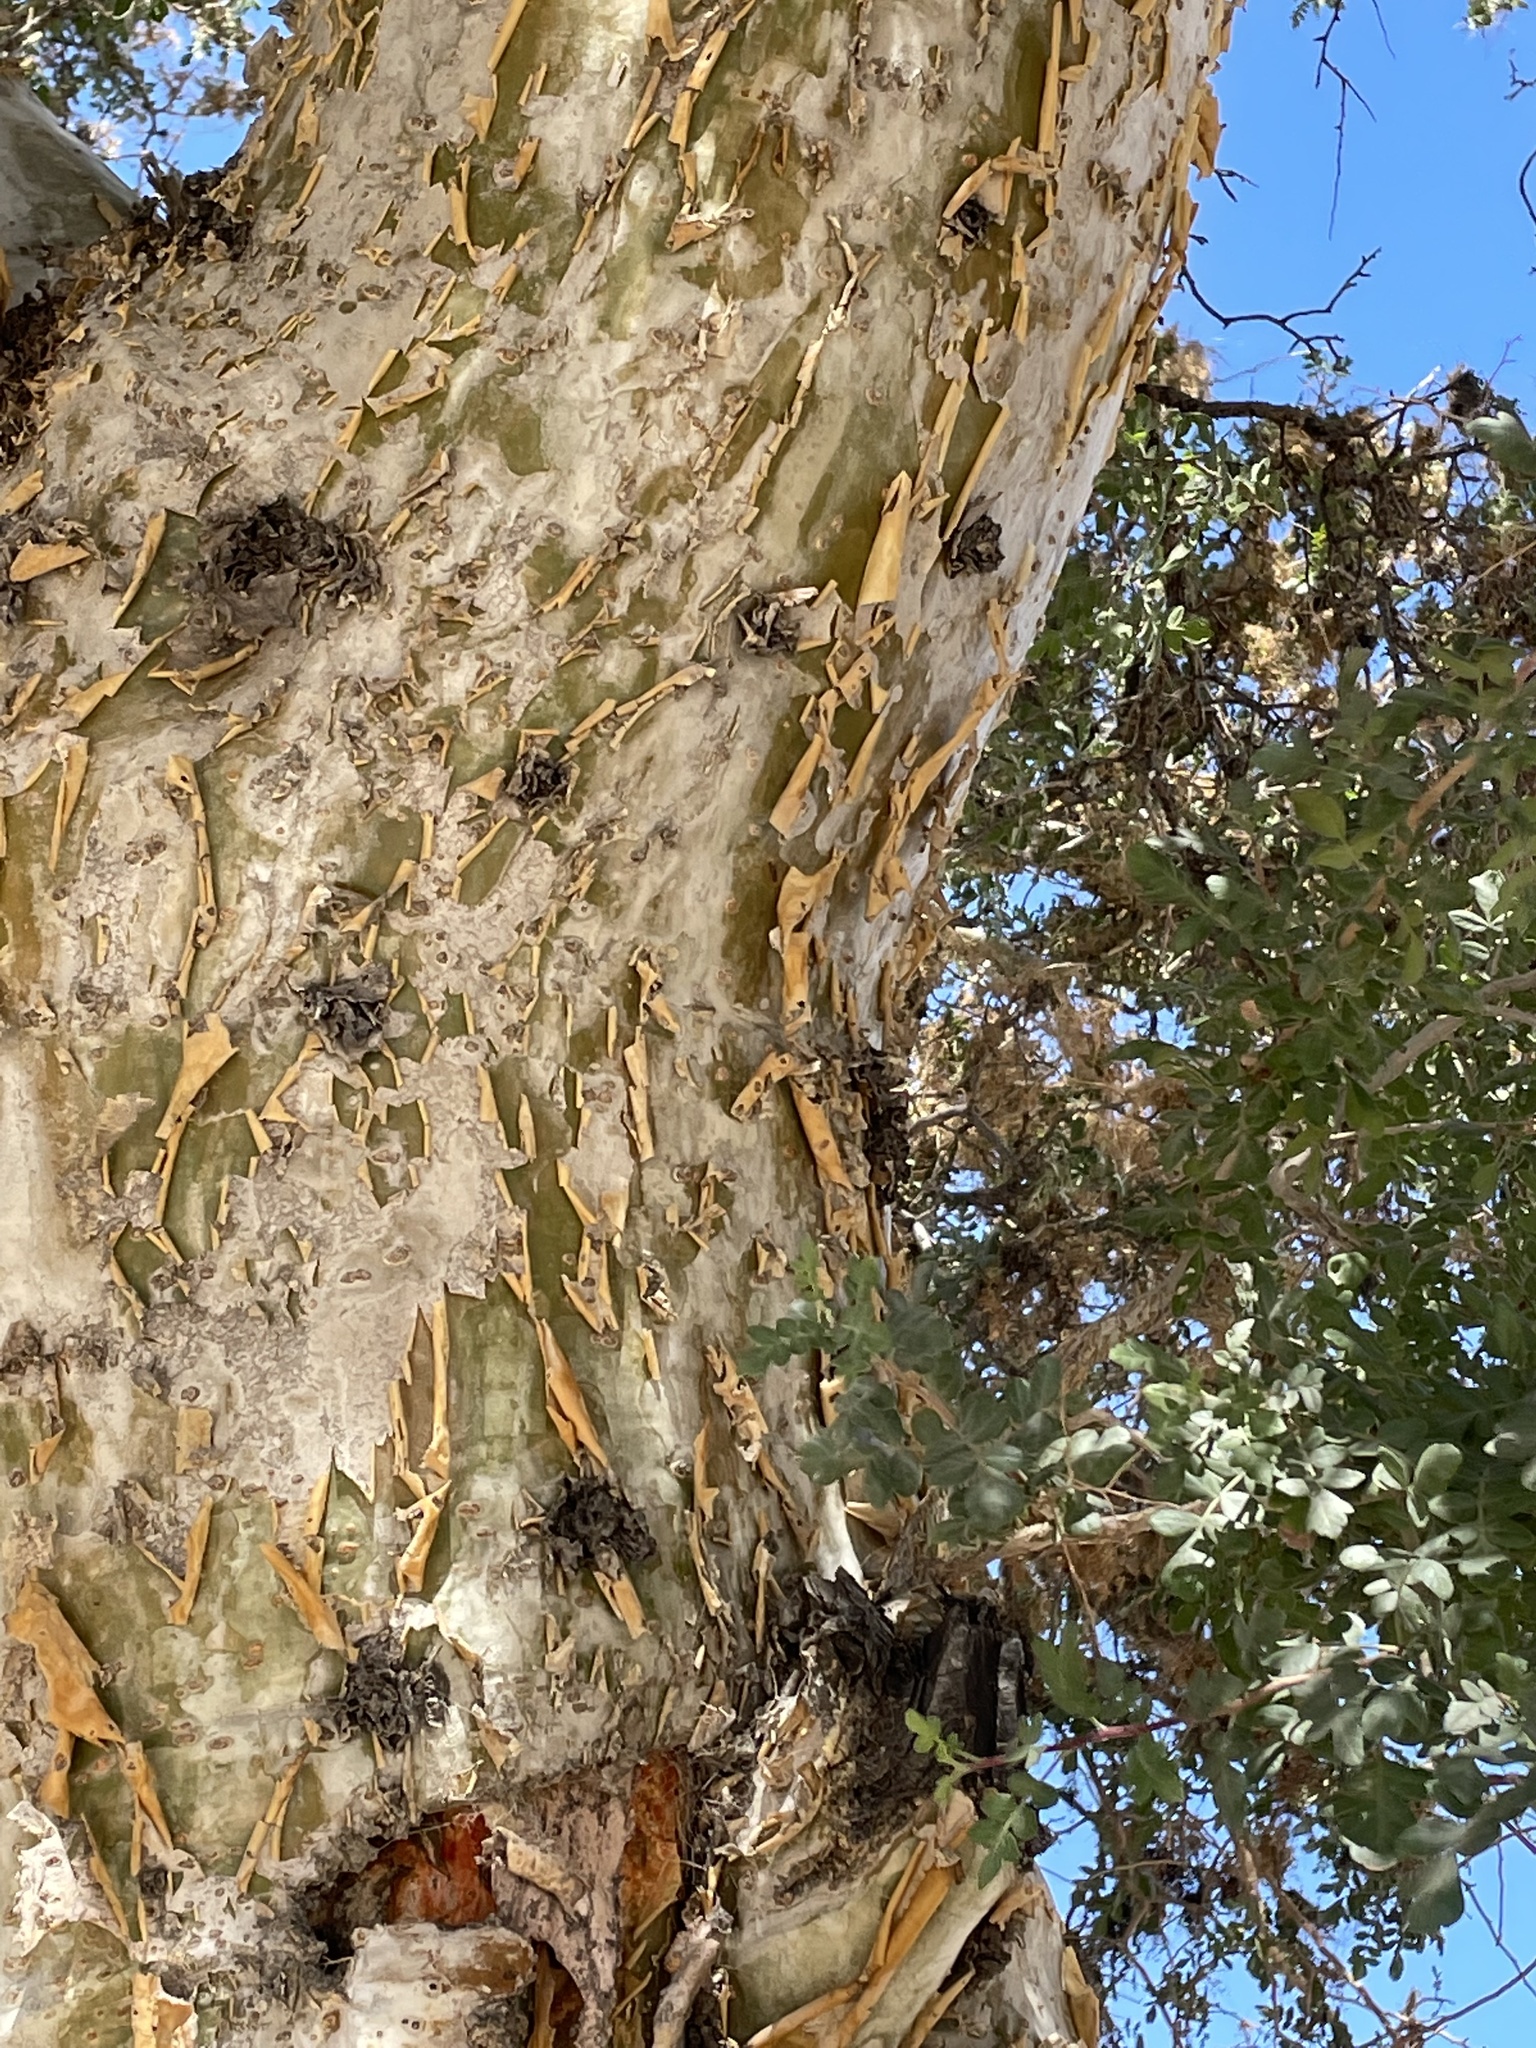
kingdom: Plantae
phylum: Tracheophyta
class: Magnoliopsida
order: Sapindales
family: Anacardiaceae
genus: Pachycormus
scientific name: Pachycormus discolor
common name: Succulent elephant trees
